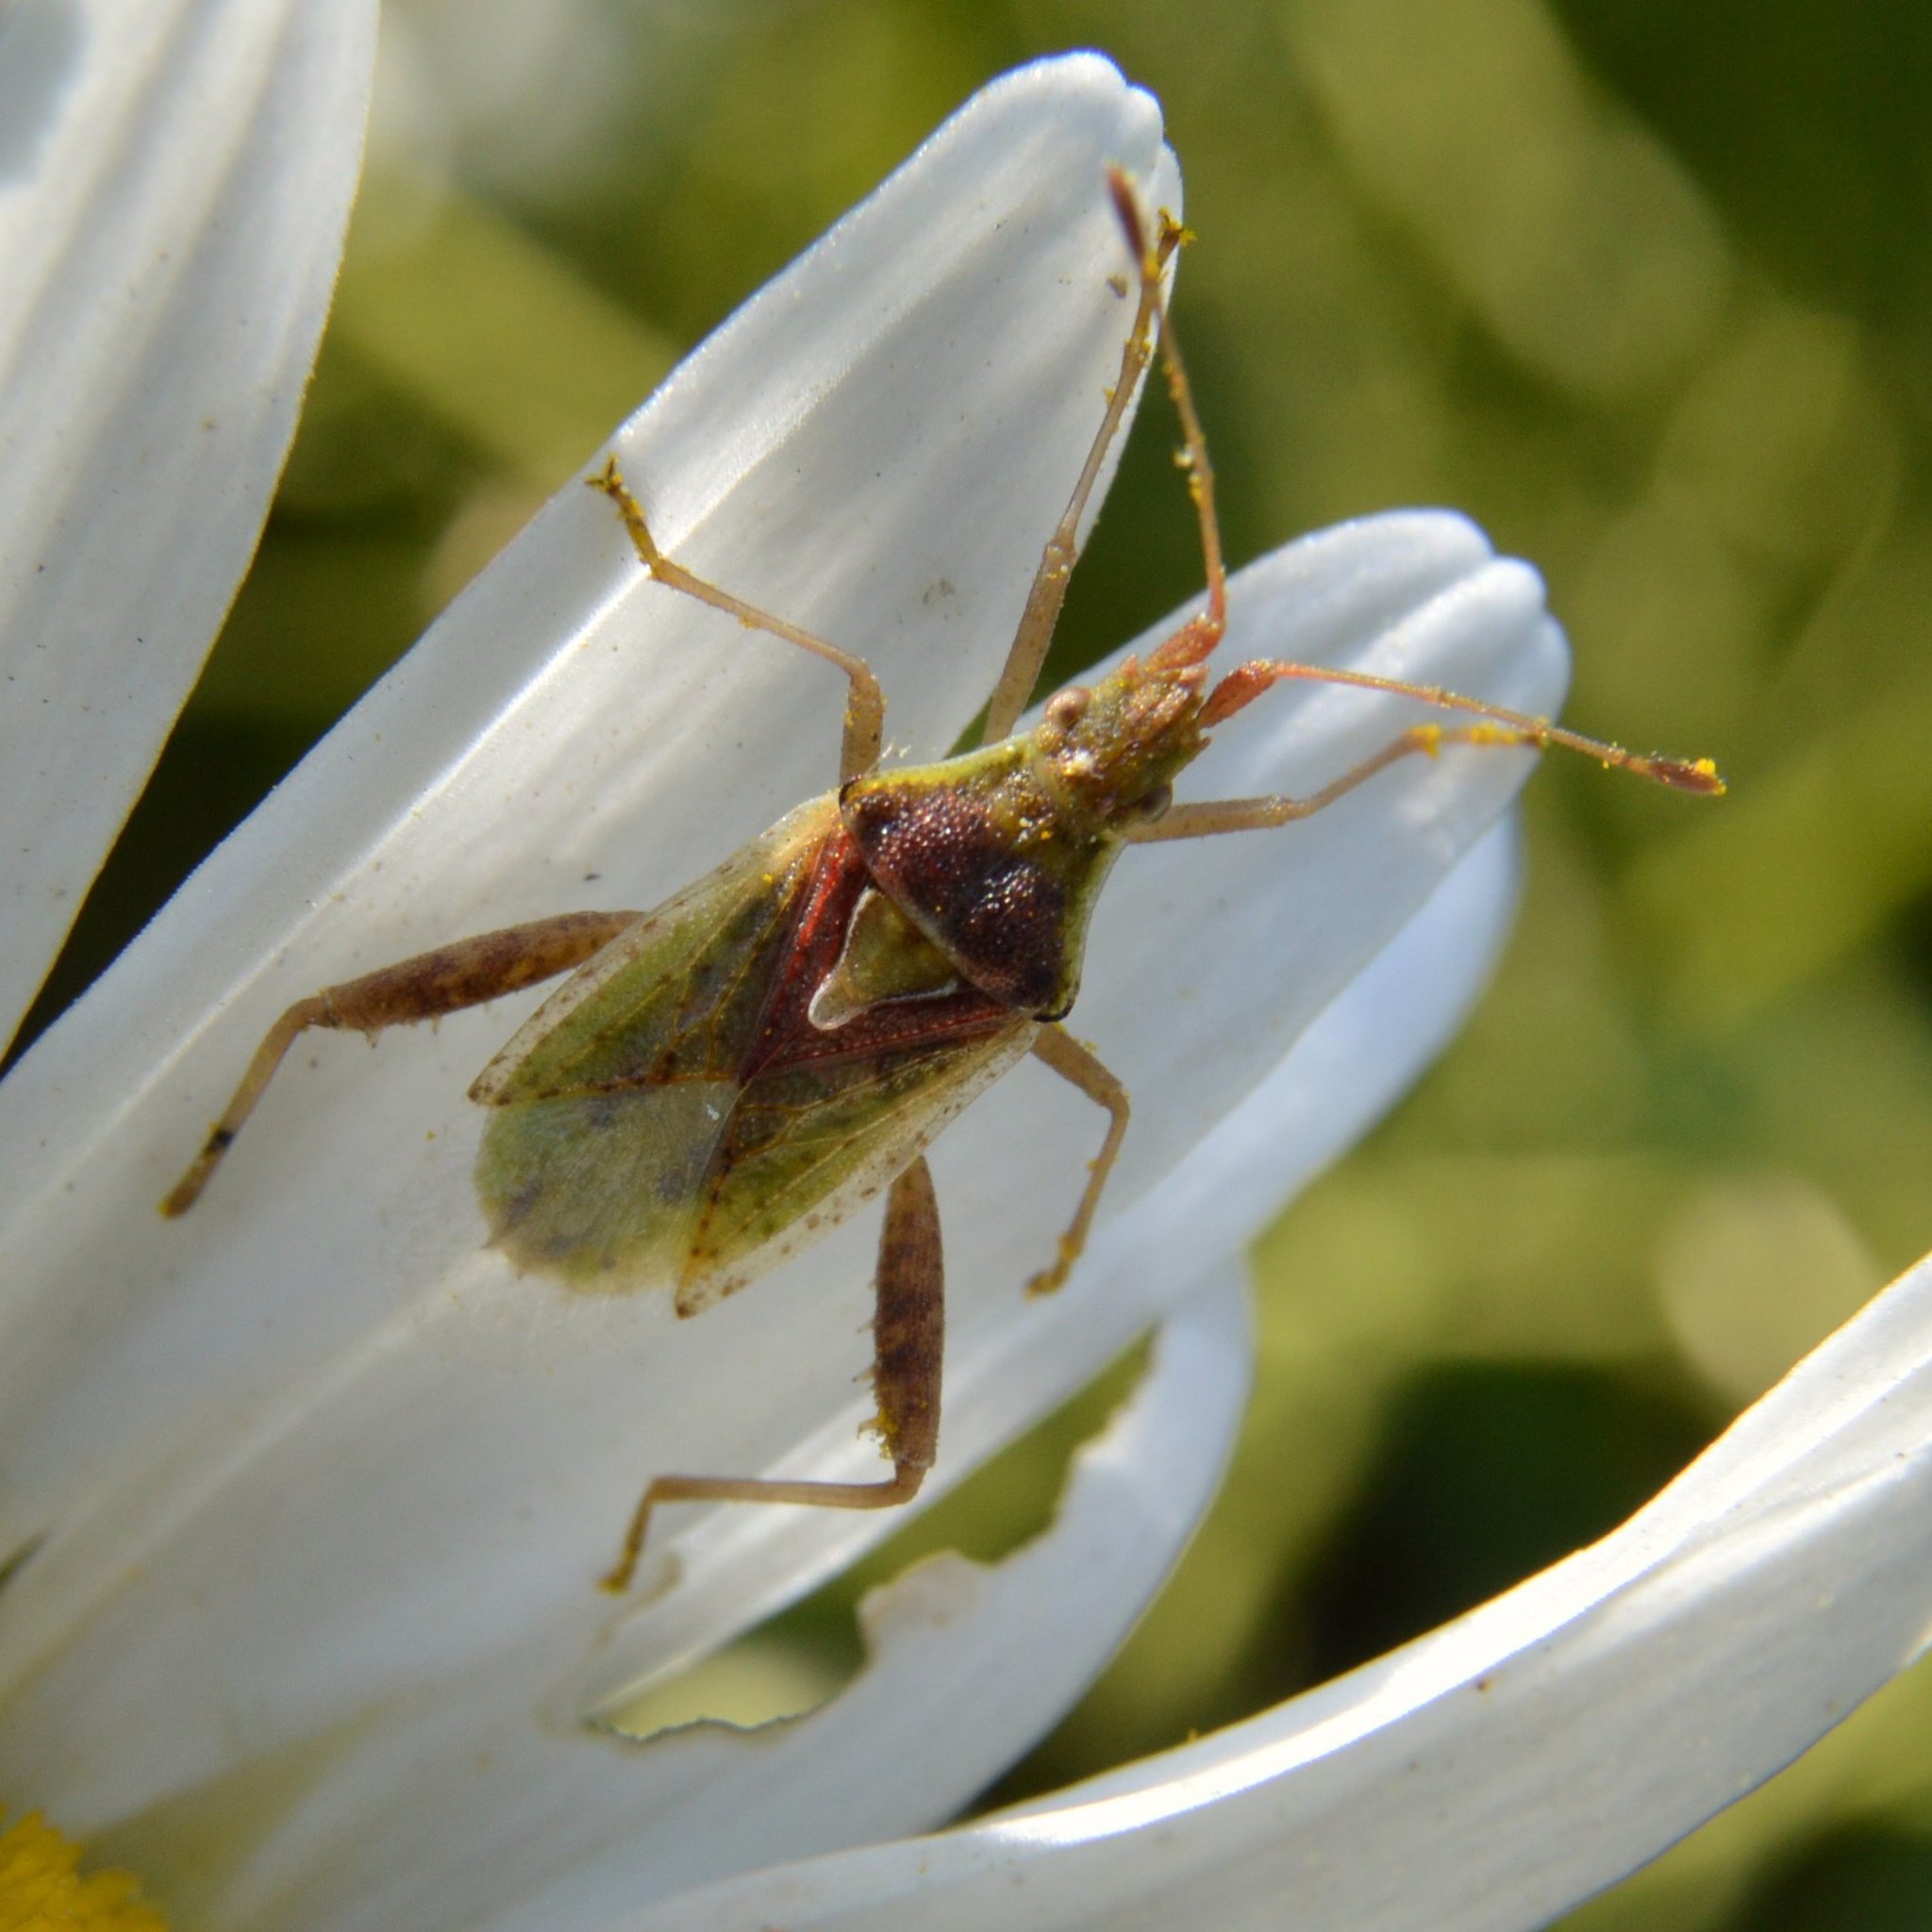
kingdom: Animalia
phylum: Arthropoda
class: Insecta
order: Hemiptera
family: Rhopalidae
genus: Harmostes
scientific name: Harmostes reflexulus
